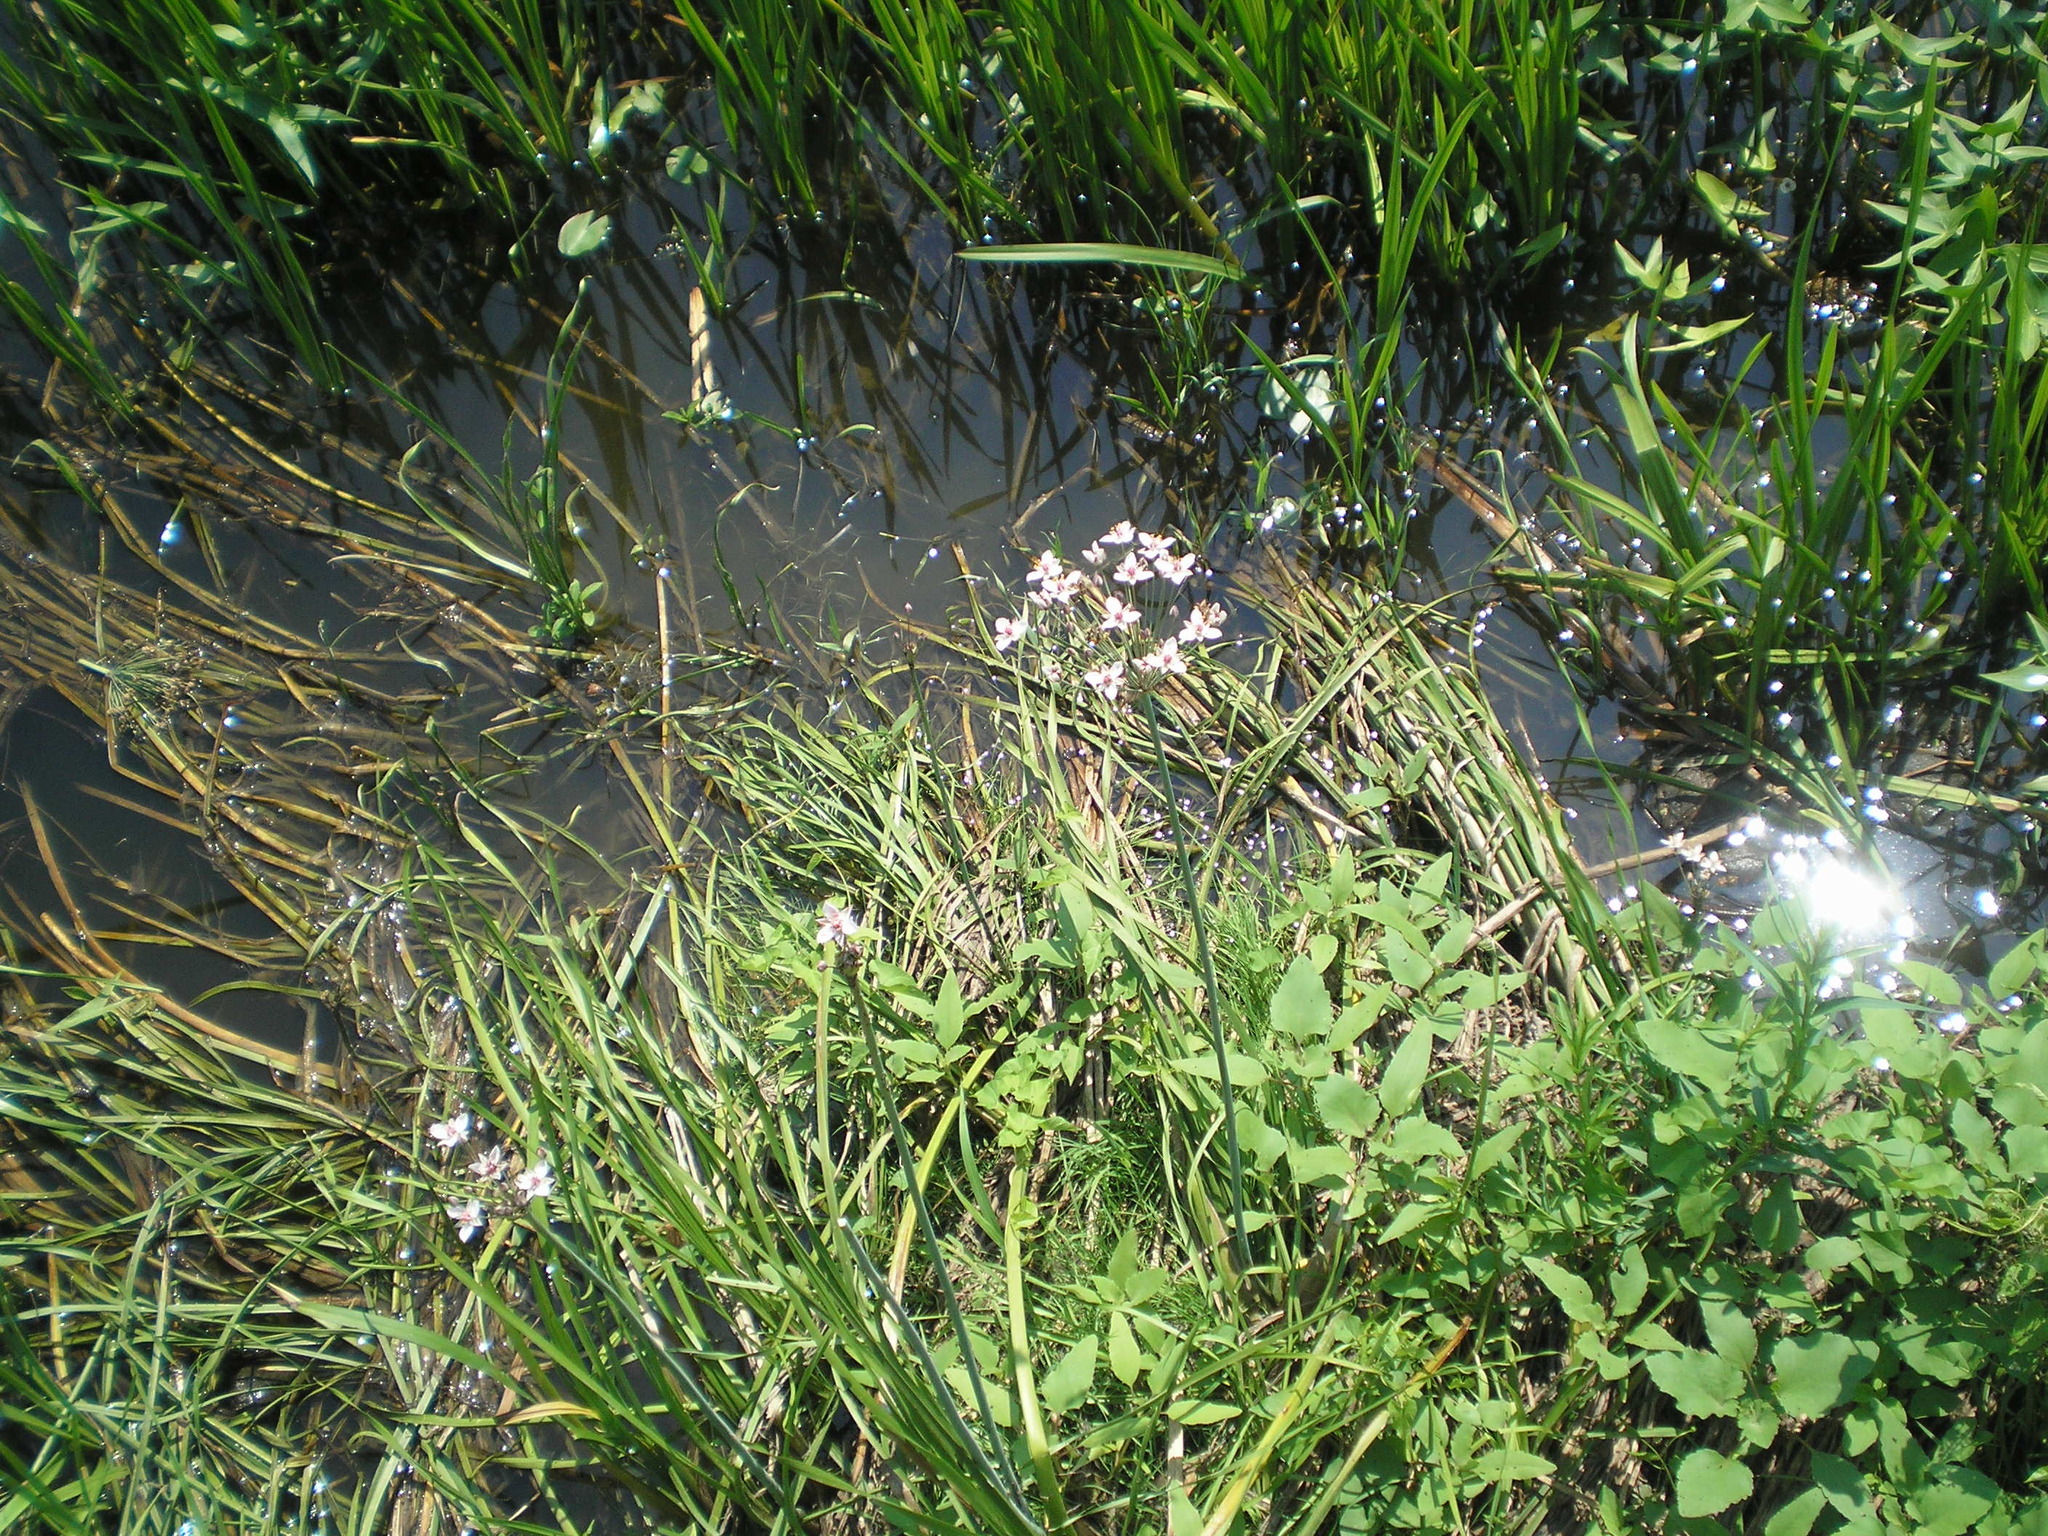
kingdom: Plantae
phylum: Tracheophyta
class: Liliopsida
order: Alismatales
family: Butomaceae
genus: Butomus
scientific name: Butomus umbellatus
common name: Flowering-rush
